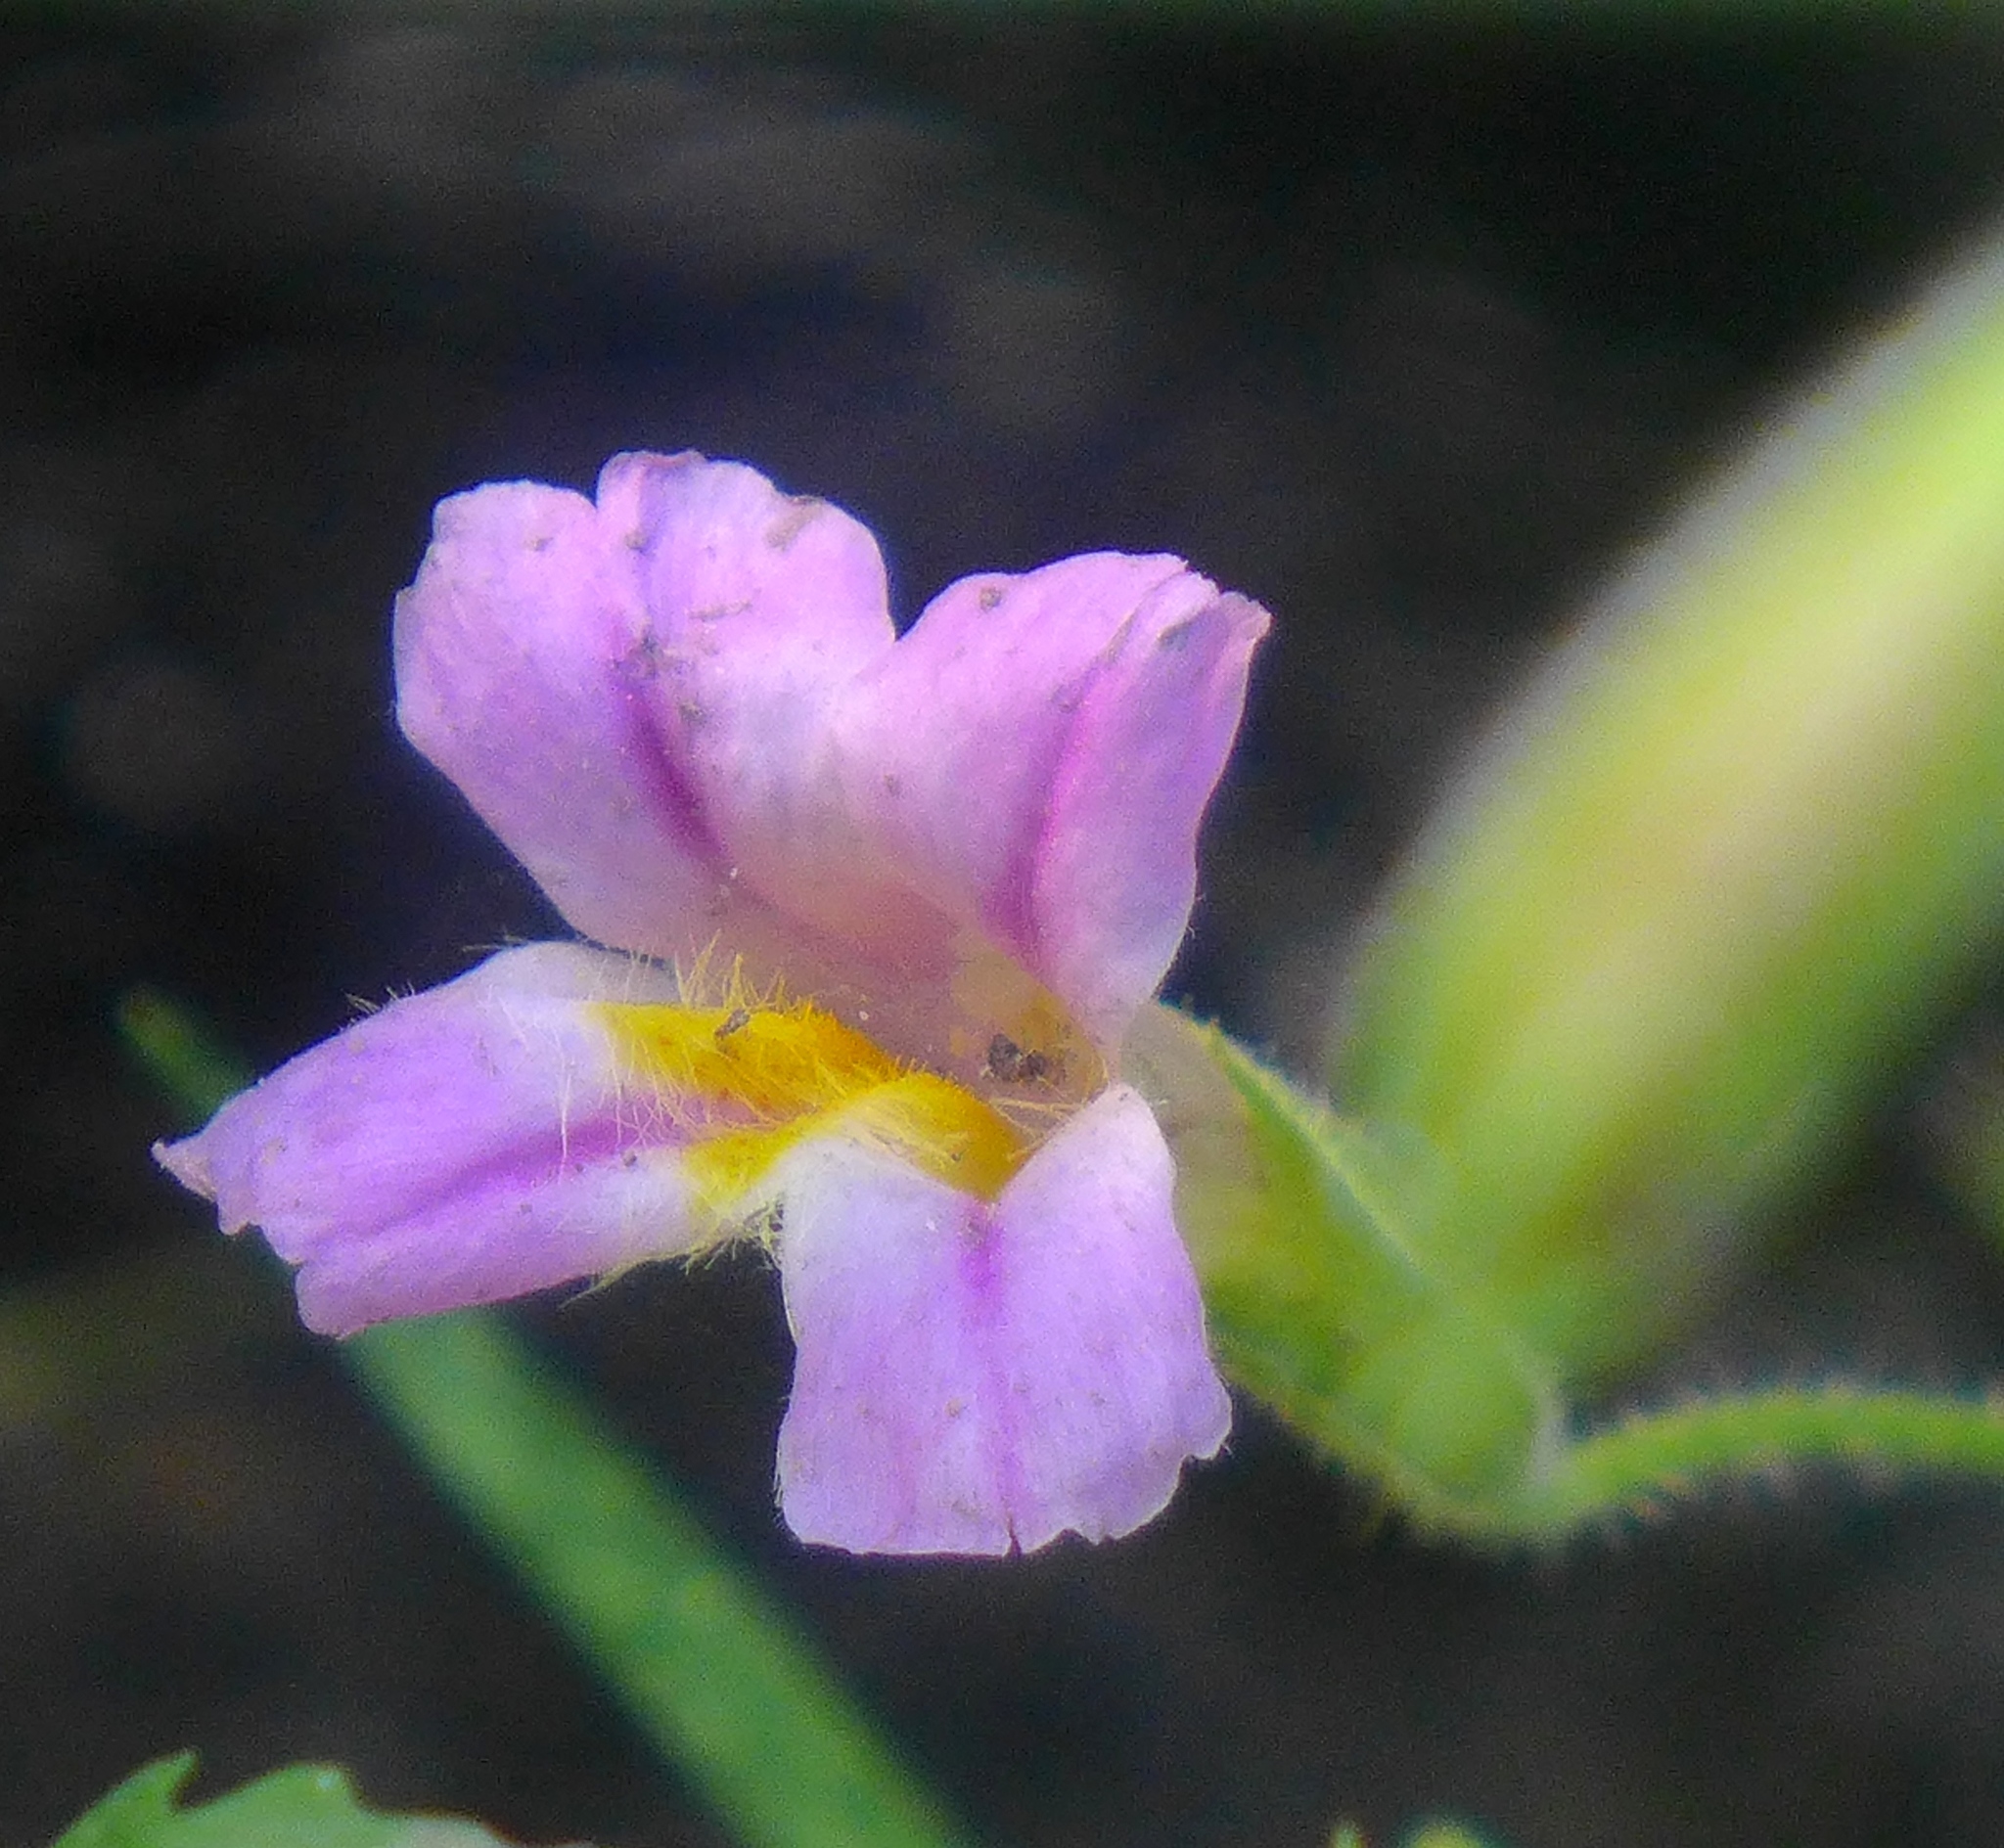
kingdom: Plantae
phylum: Tracheophyta
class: Magnoliopsida
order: Lamiales
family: Phrymaceae
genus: Erythranthe
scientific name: Erythranthe erubescens
